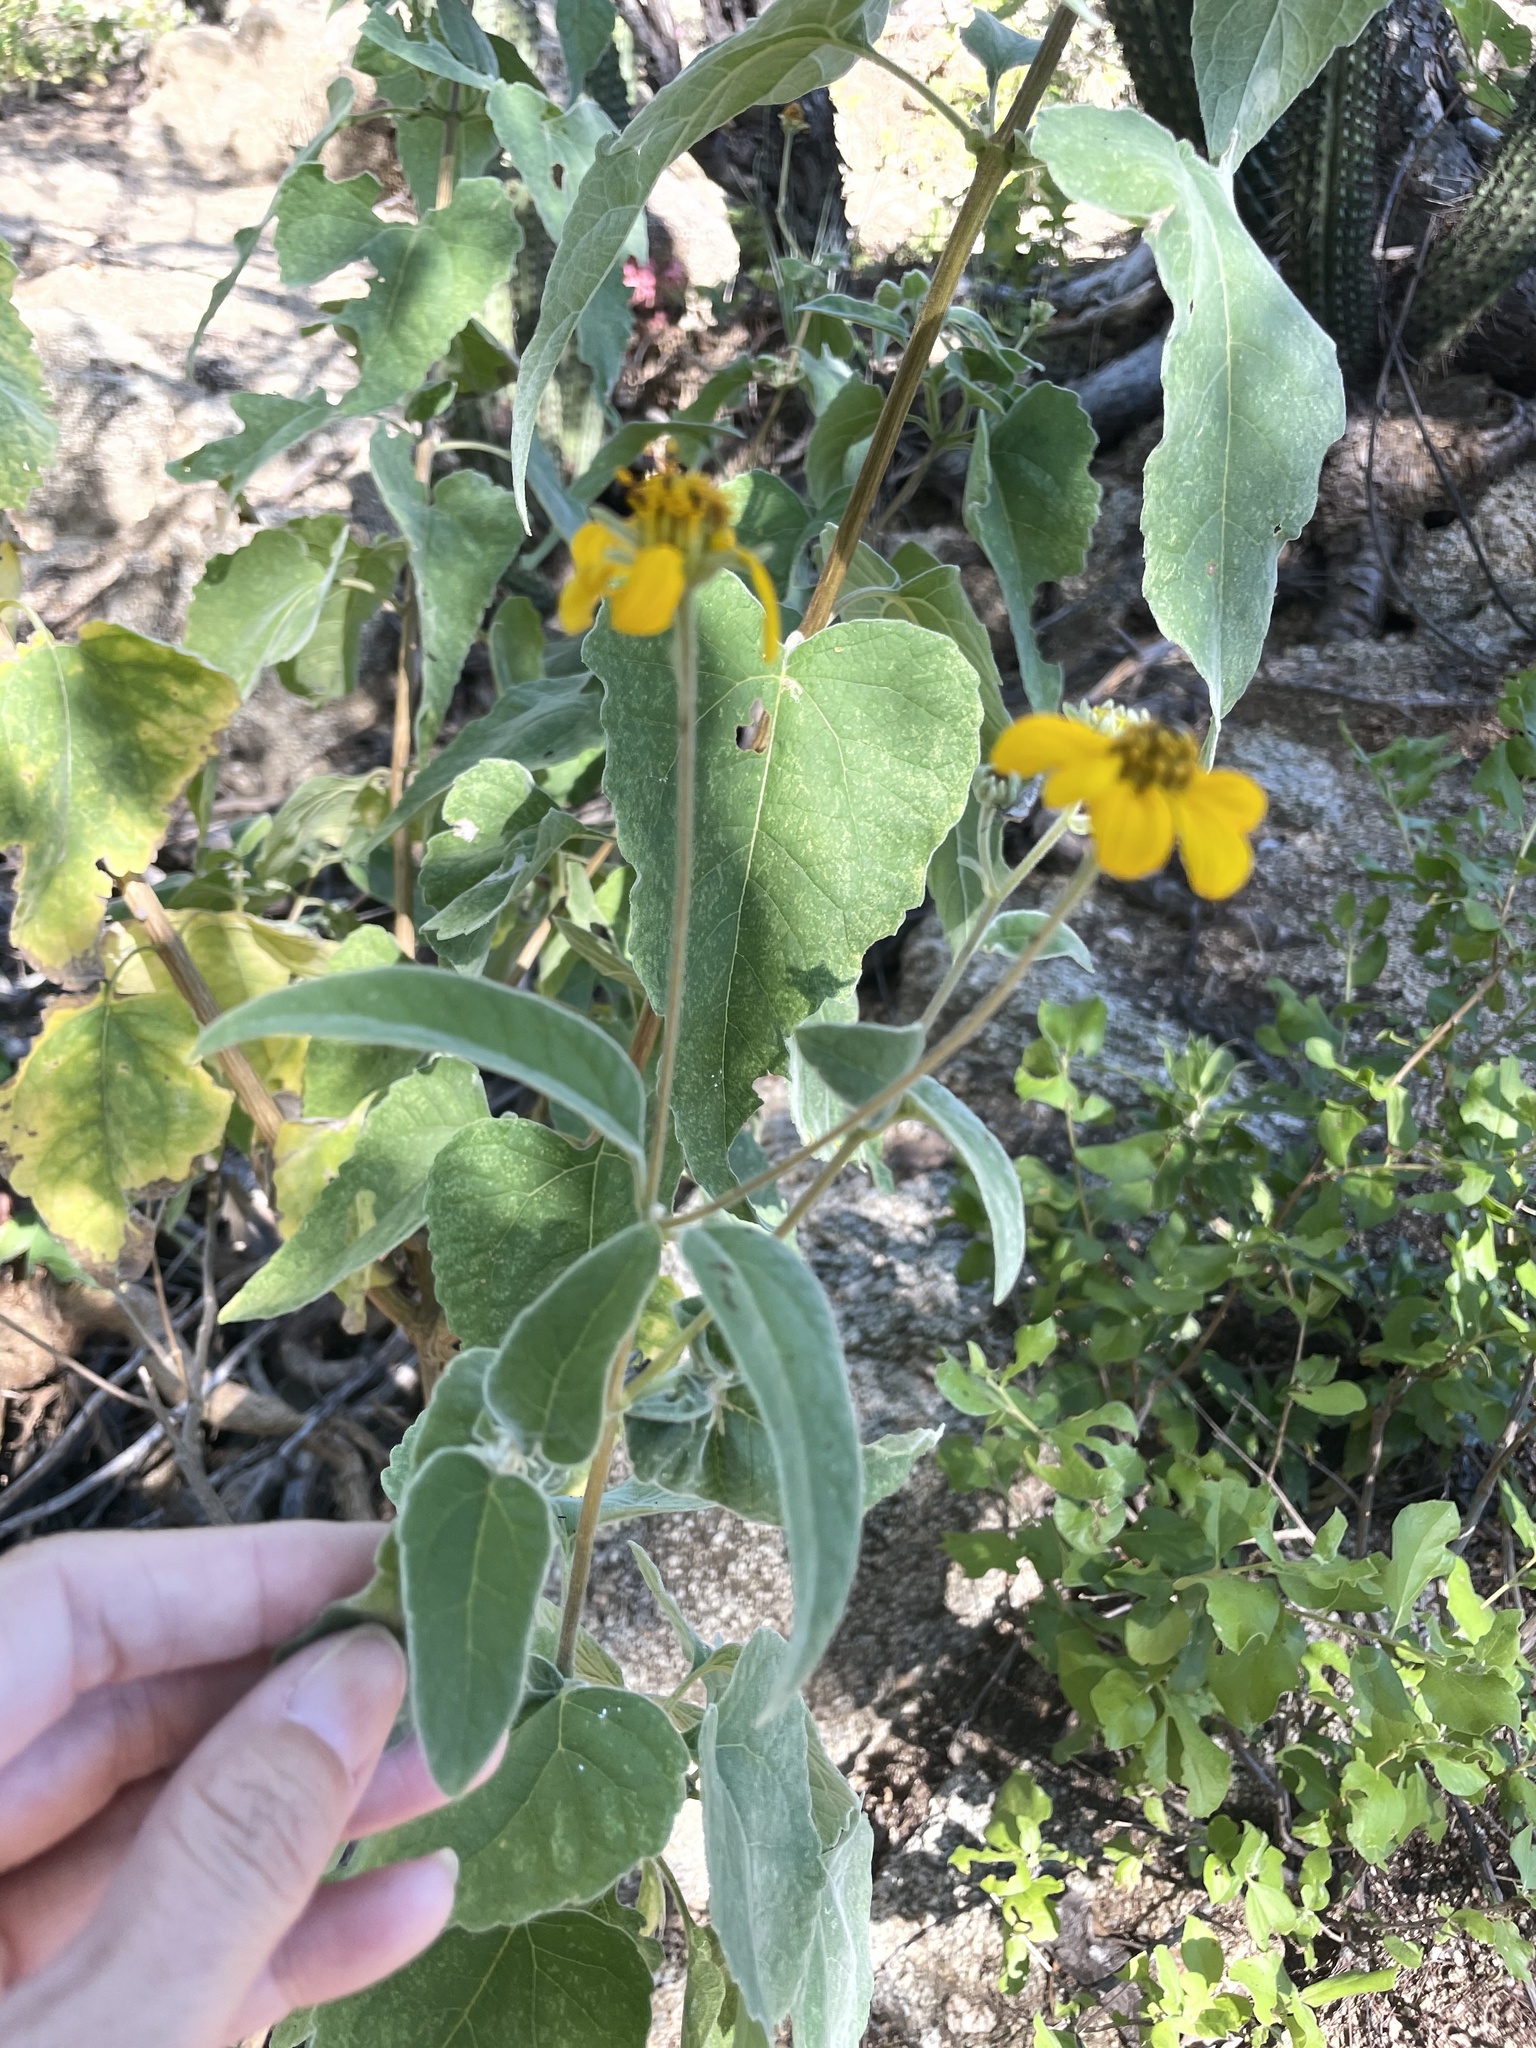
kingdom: Plantae
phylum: Tracheophyta
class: Magnoliopsida
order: Asterales
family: Asteraceae
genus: Bahiopsis
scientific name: Bahiopsis tomentosa
